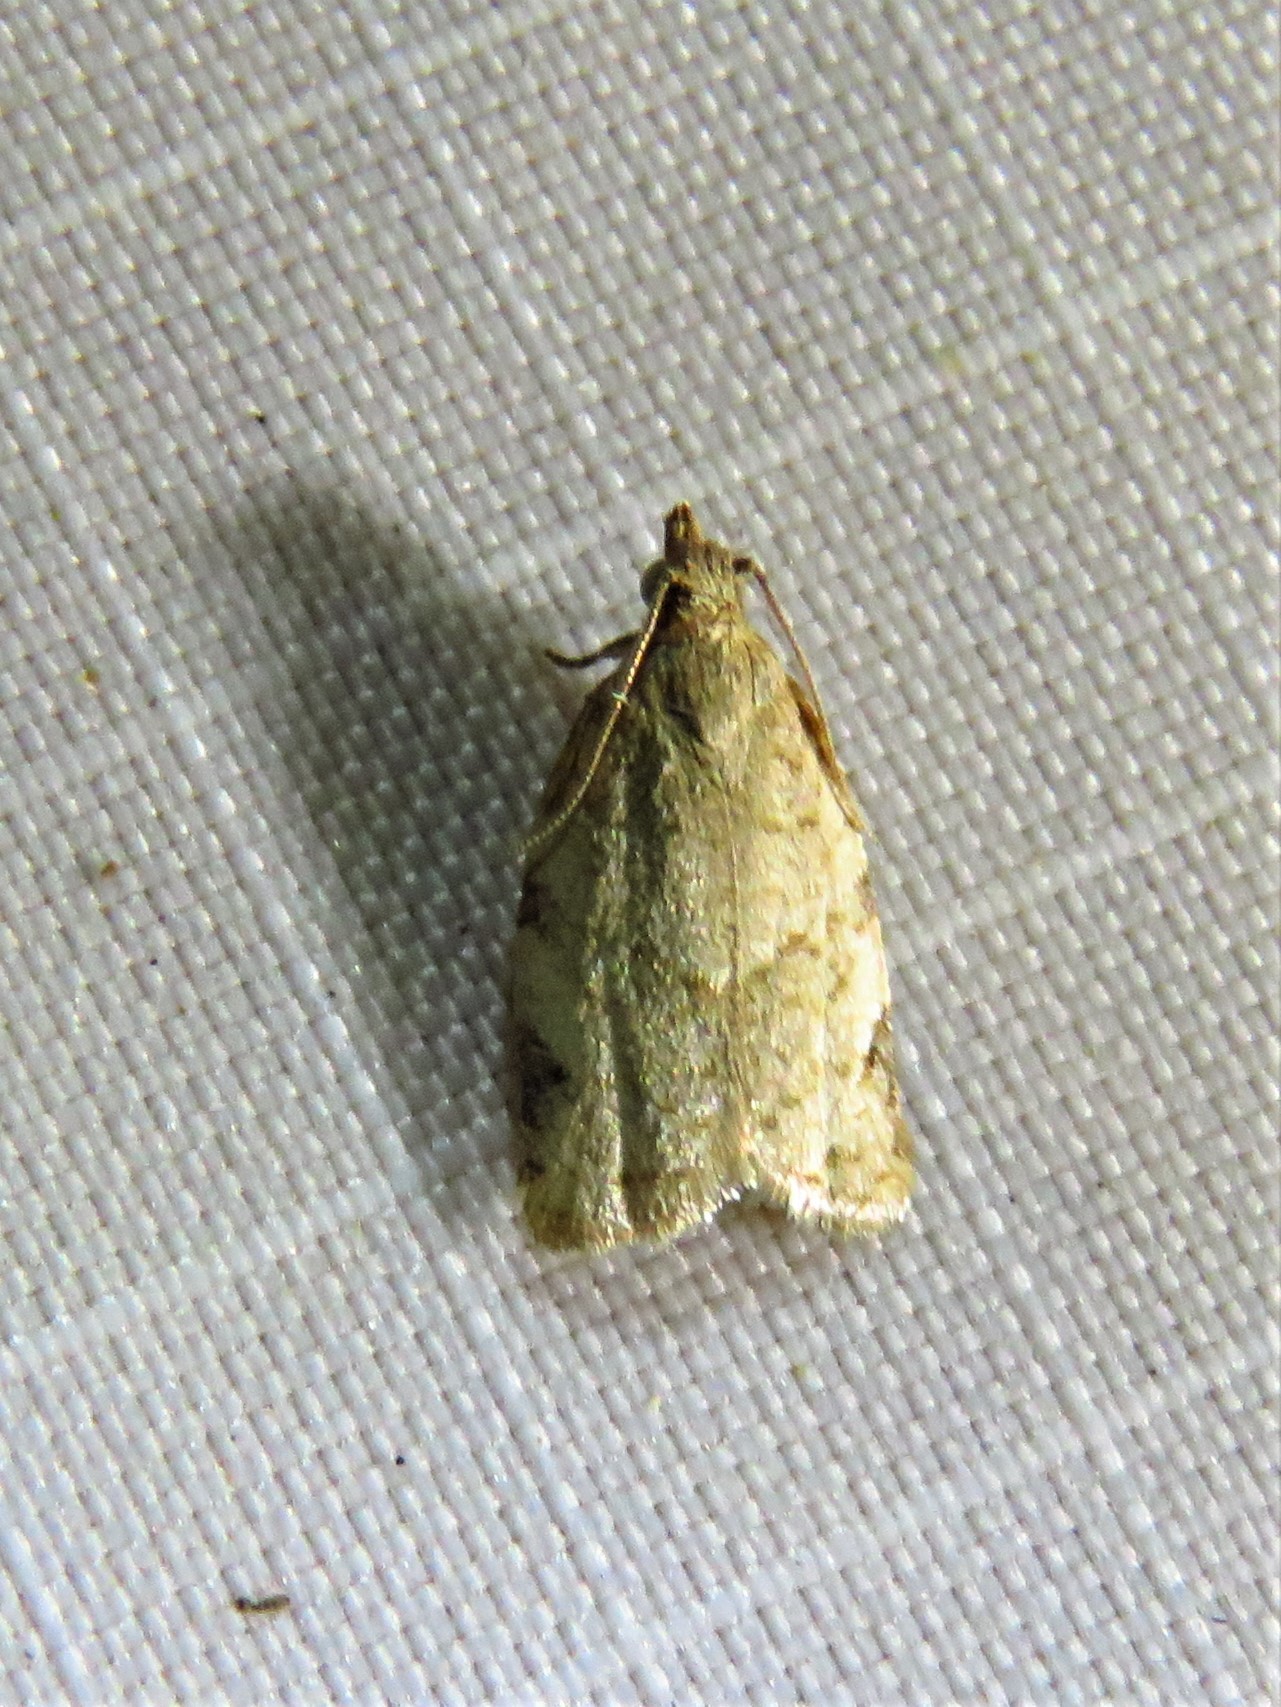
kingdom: Animalia
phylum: Arthropoda
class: Insecta
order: Lepidoptera
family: Tortricidae
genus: Clepsis
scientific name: Clepsis virescana
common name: Greenish apple moth
